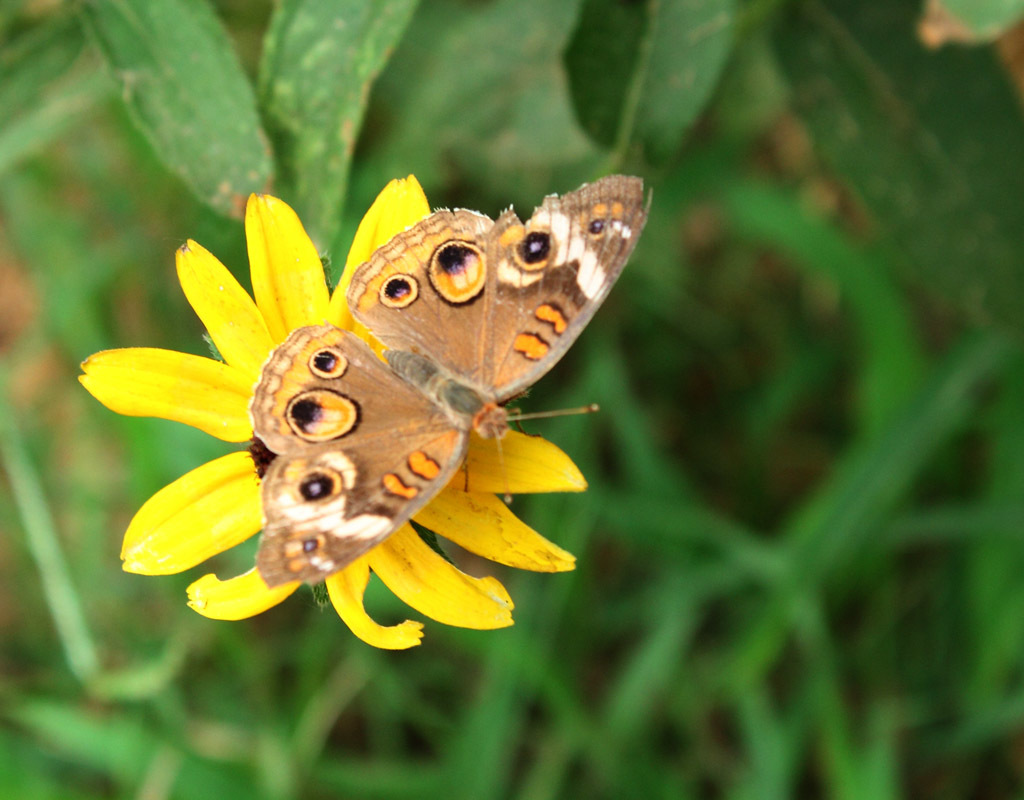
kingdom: Animalia
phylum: Arthropoda
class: Insecta
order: Lepidoptera
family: Nymphalidae
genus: Junonia
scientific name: Junonia coenia
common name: Common buckeye
